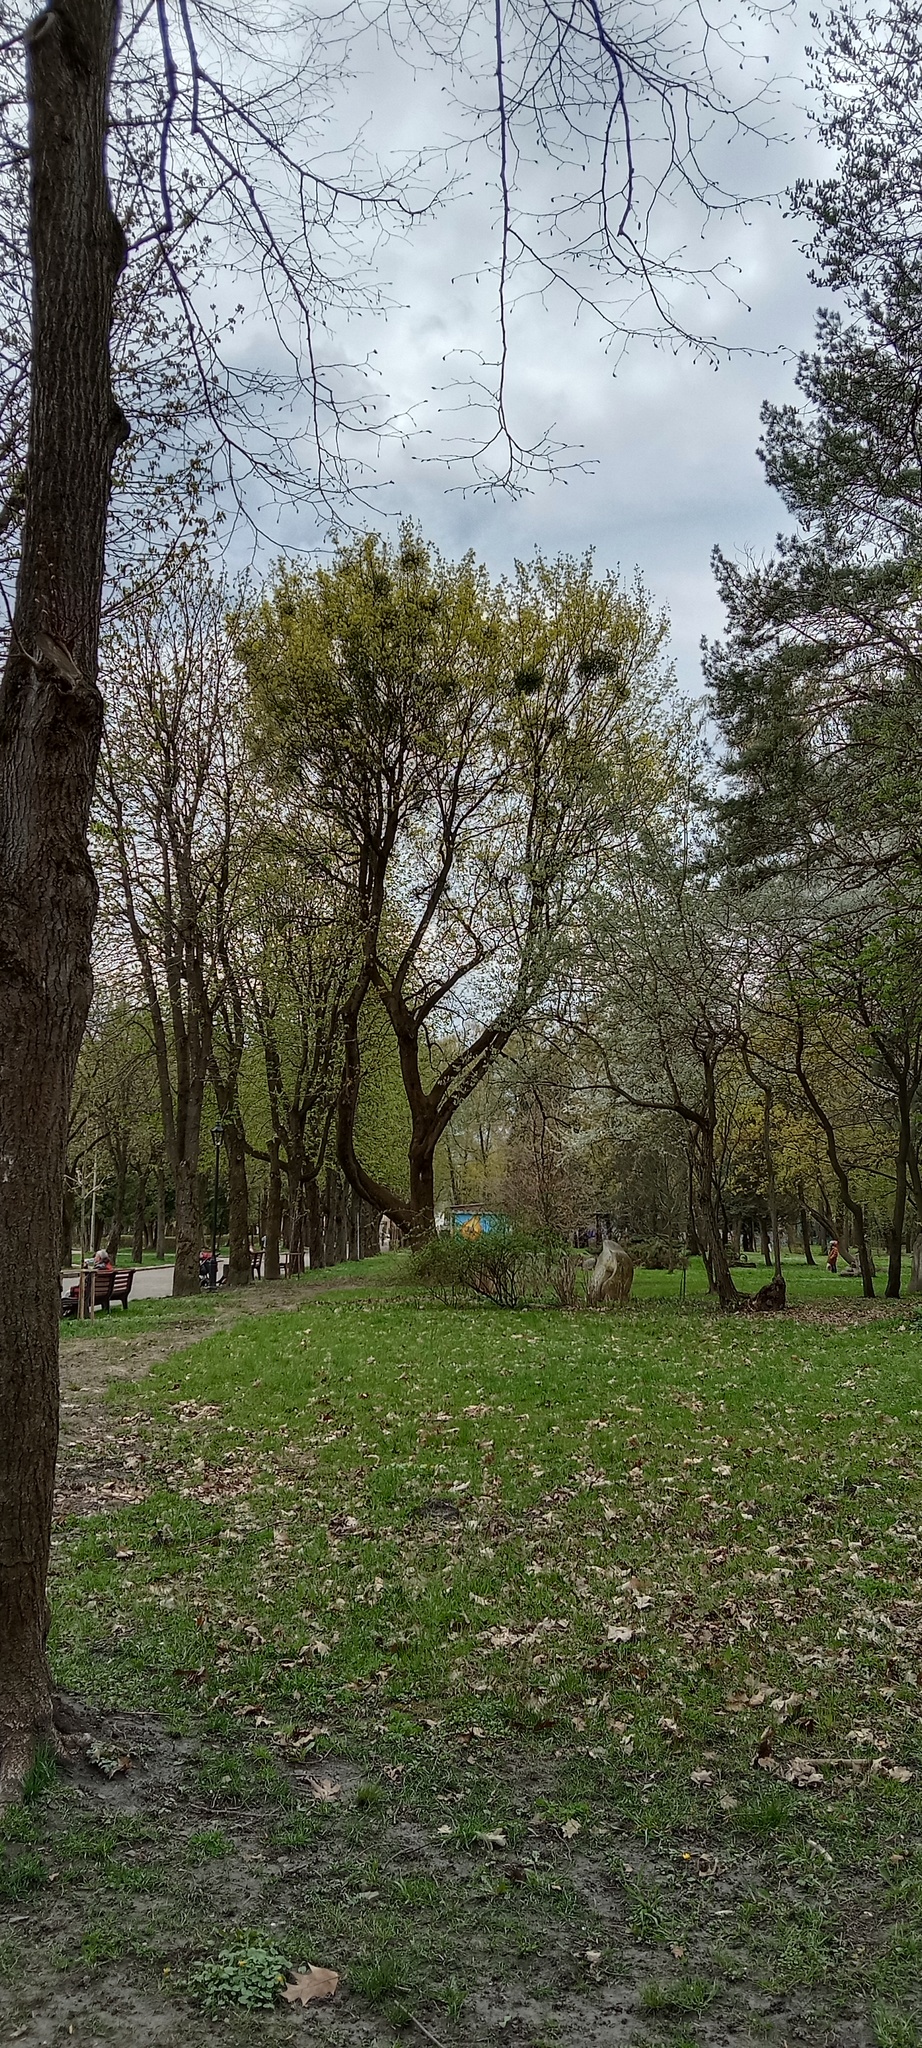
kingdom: Plantae
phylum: Tracheophyta
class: Magnoliopsida
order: Santalales
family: Viscaceae
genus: Viscum
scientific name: Viscum album
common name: Mistletoe
